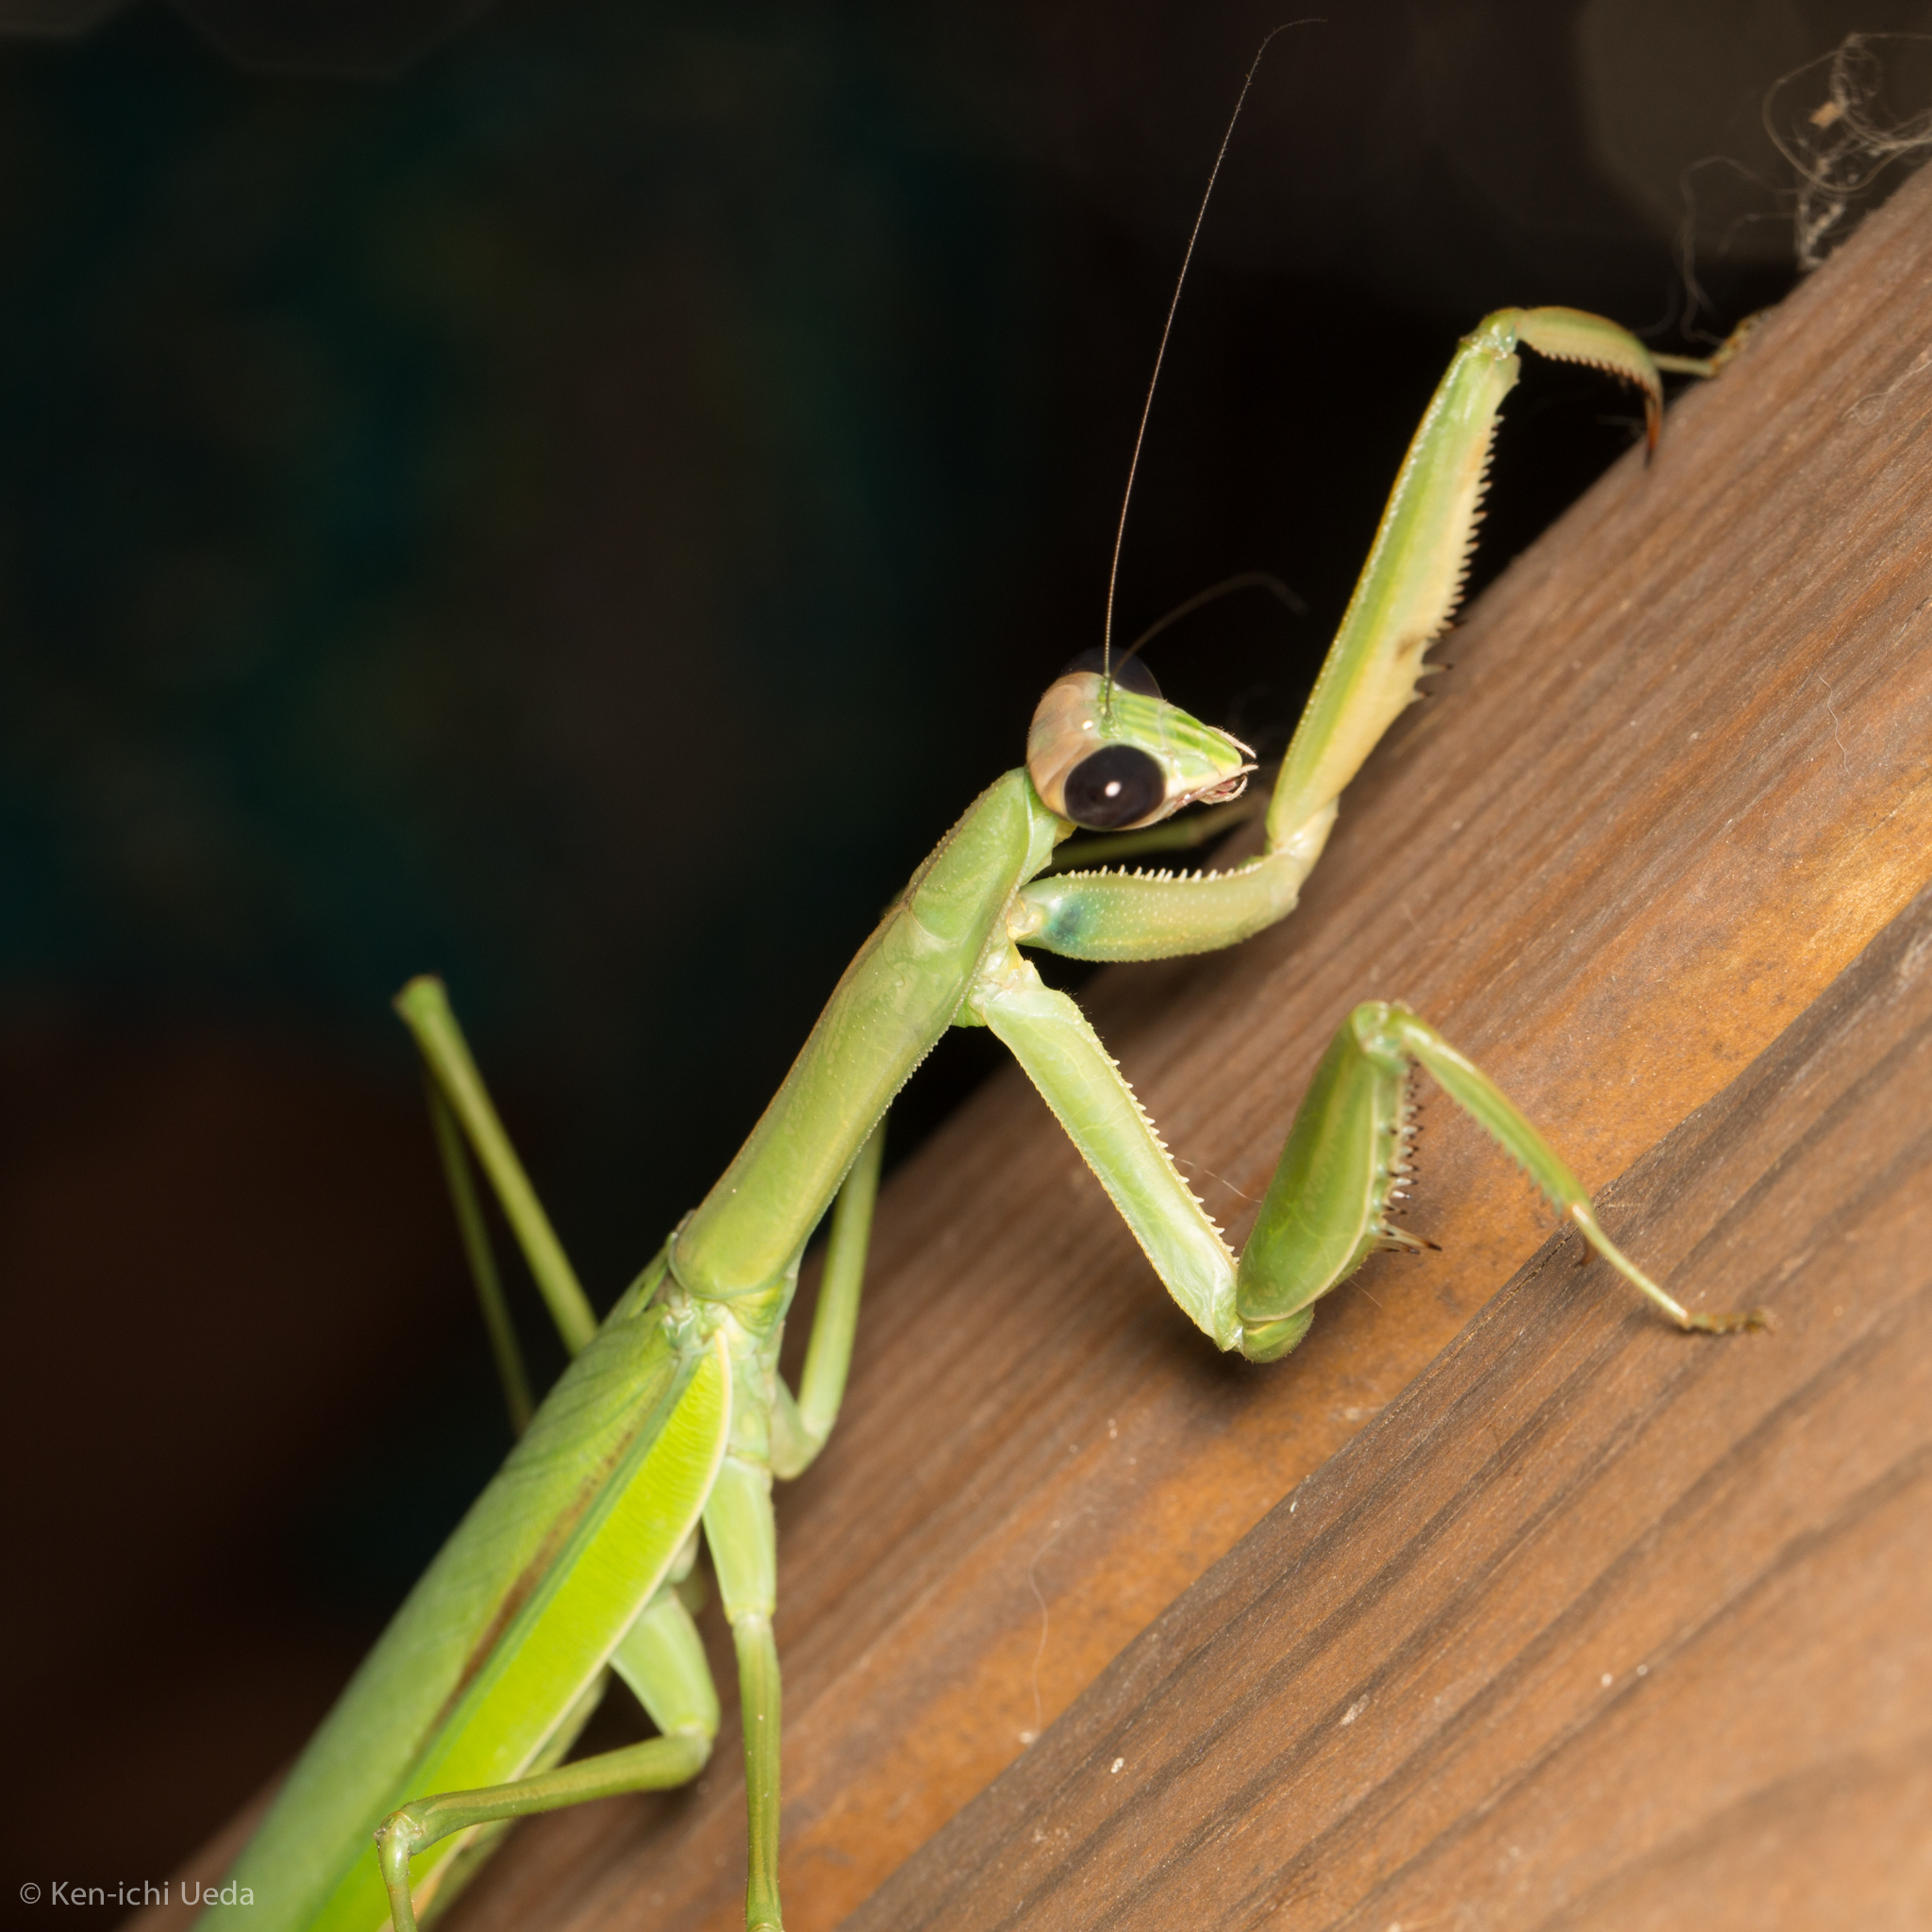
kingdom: Animalia
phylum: Arthropoda
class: Insecta
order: Mantodea
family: Mantidae
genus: Tenodera
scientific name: Tenodera sinensis
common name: Chinese mantis
